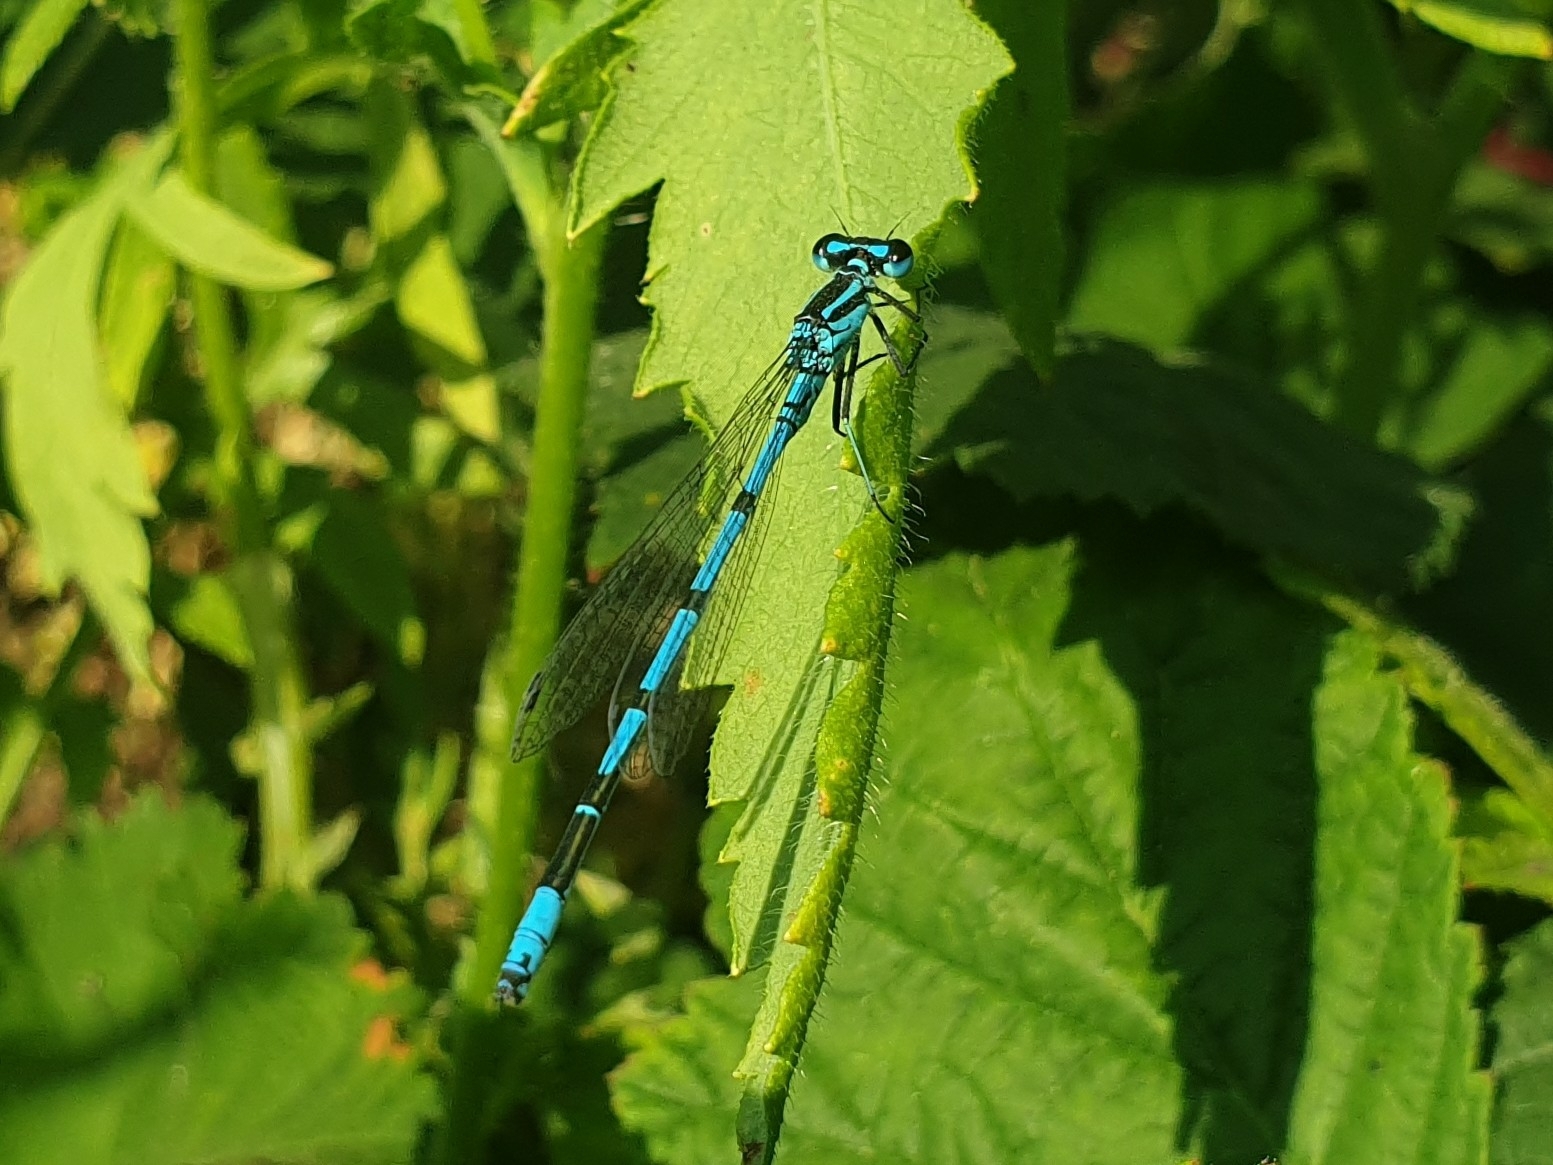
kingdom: Animalia
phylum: Arthropoda
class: Insecta
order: Odonata
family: Coenagrionidae
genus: Coenagrion
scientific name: Coenagrion puella
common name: Azure damselfly
